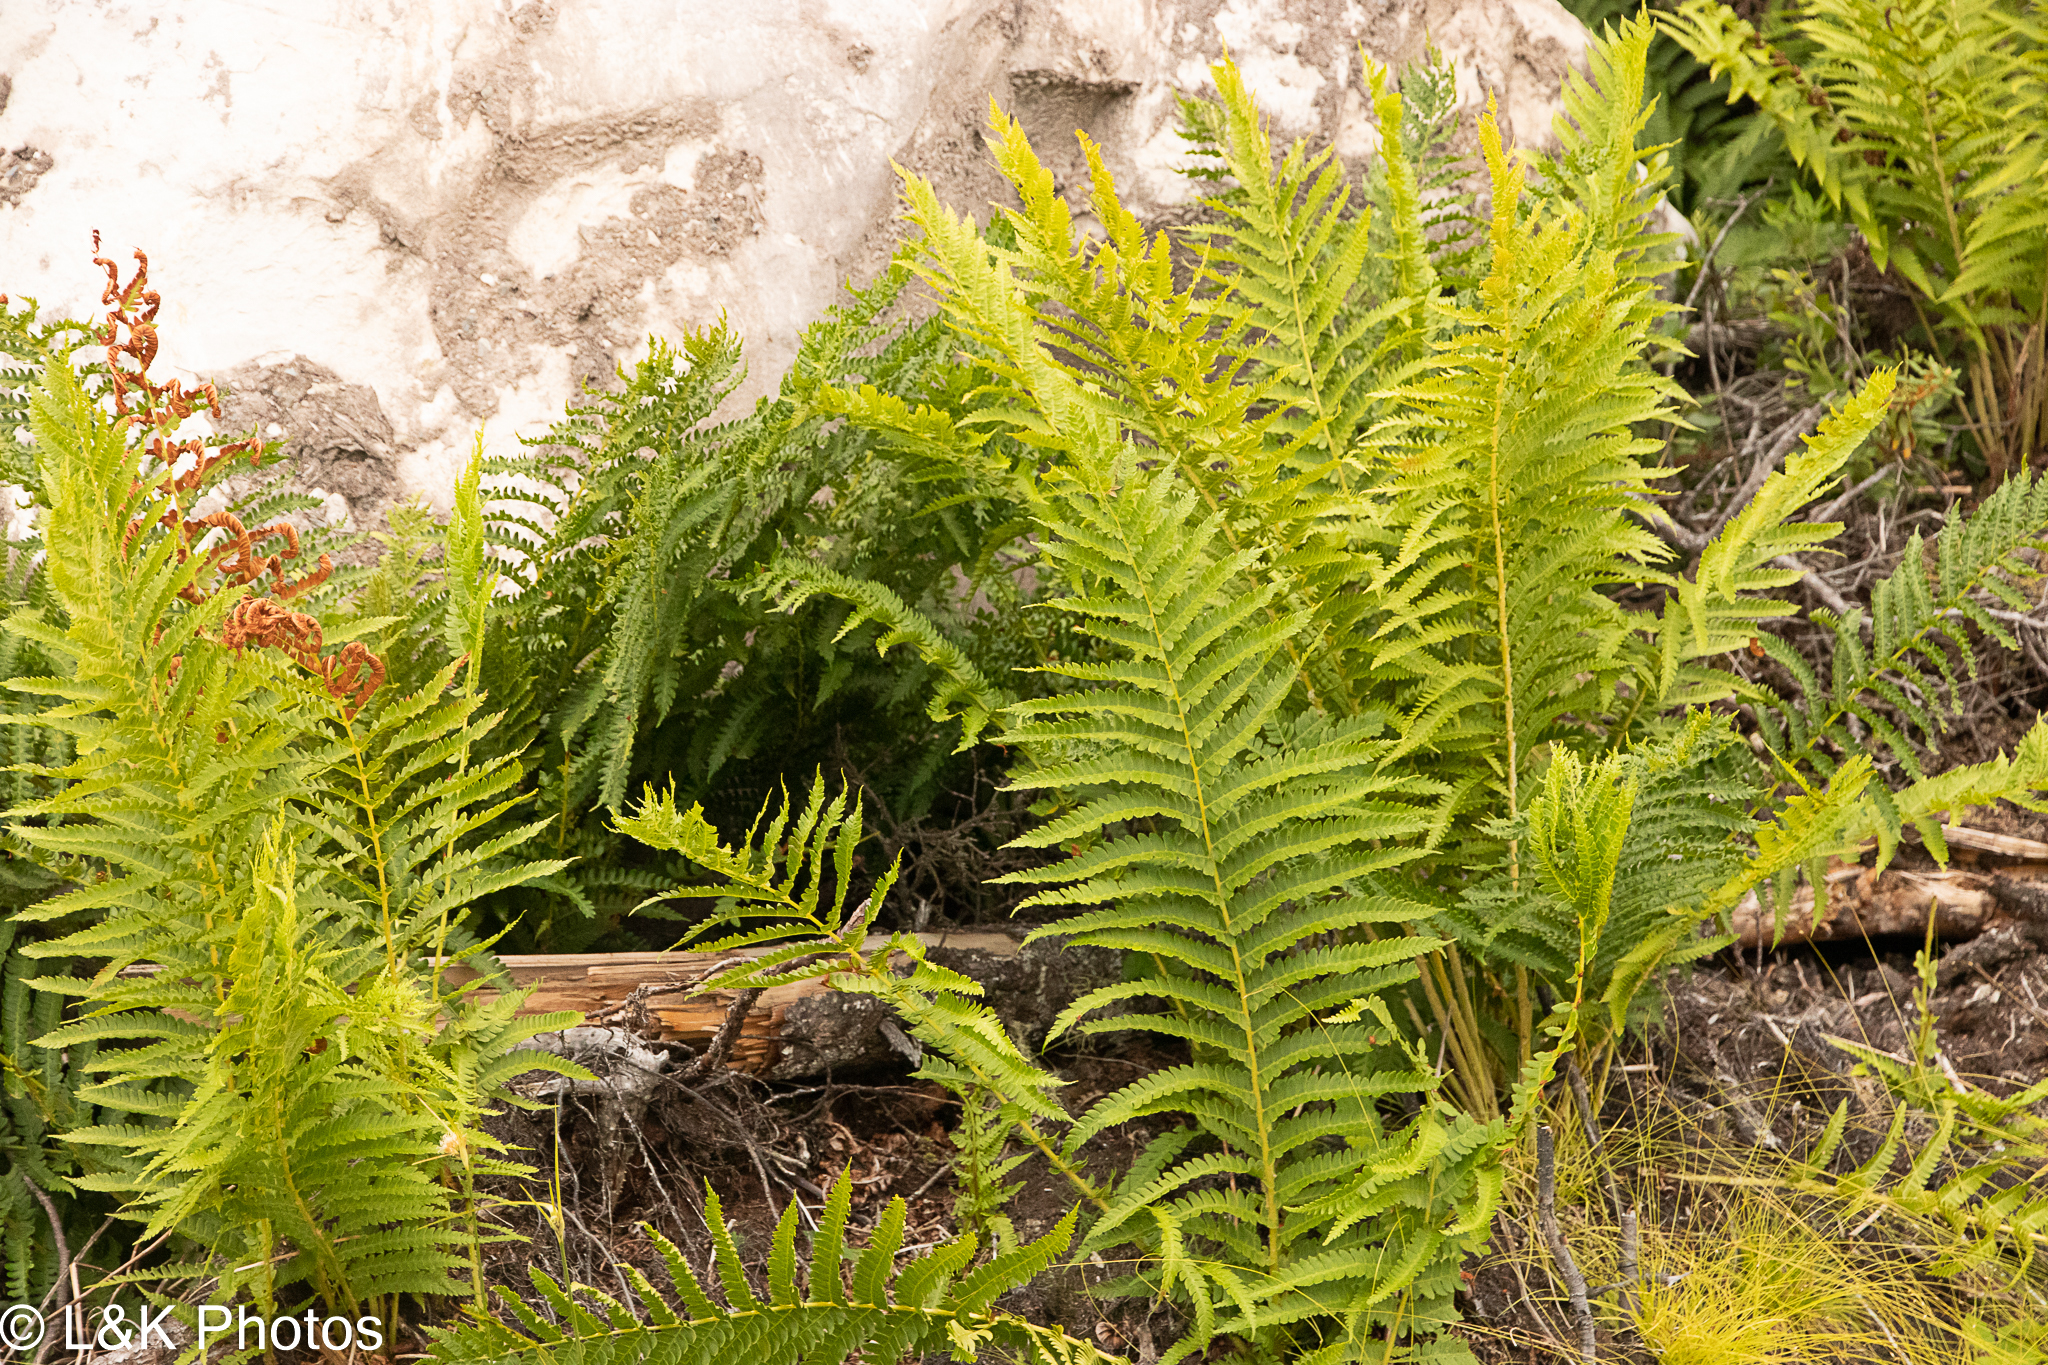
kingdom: Plantae
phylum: Tracheophyta
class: Polypodiopsida
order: Osmundales
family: Osmundaceae
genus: Osmundastrum
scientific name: Osmundastrum cinnamomeum
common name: Cinnamon fern
